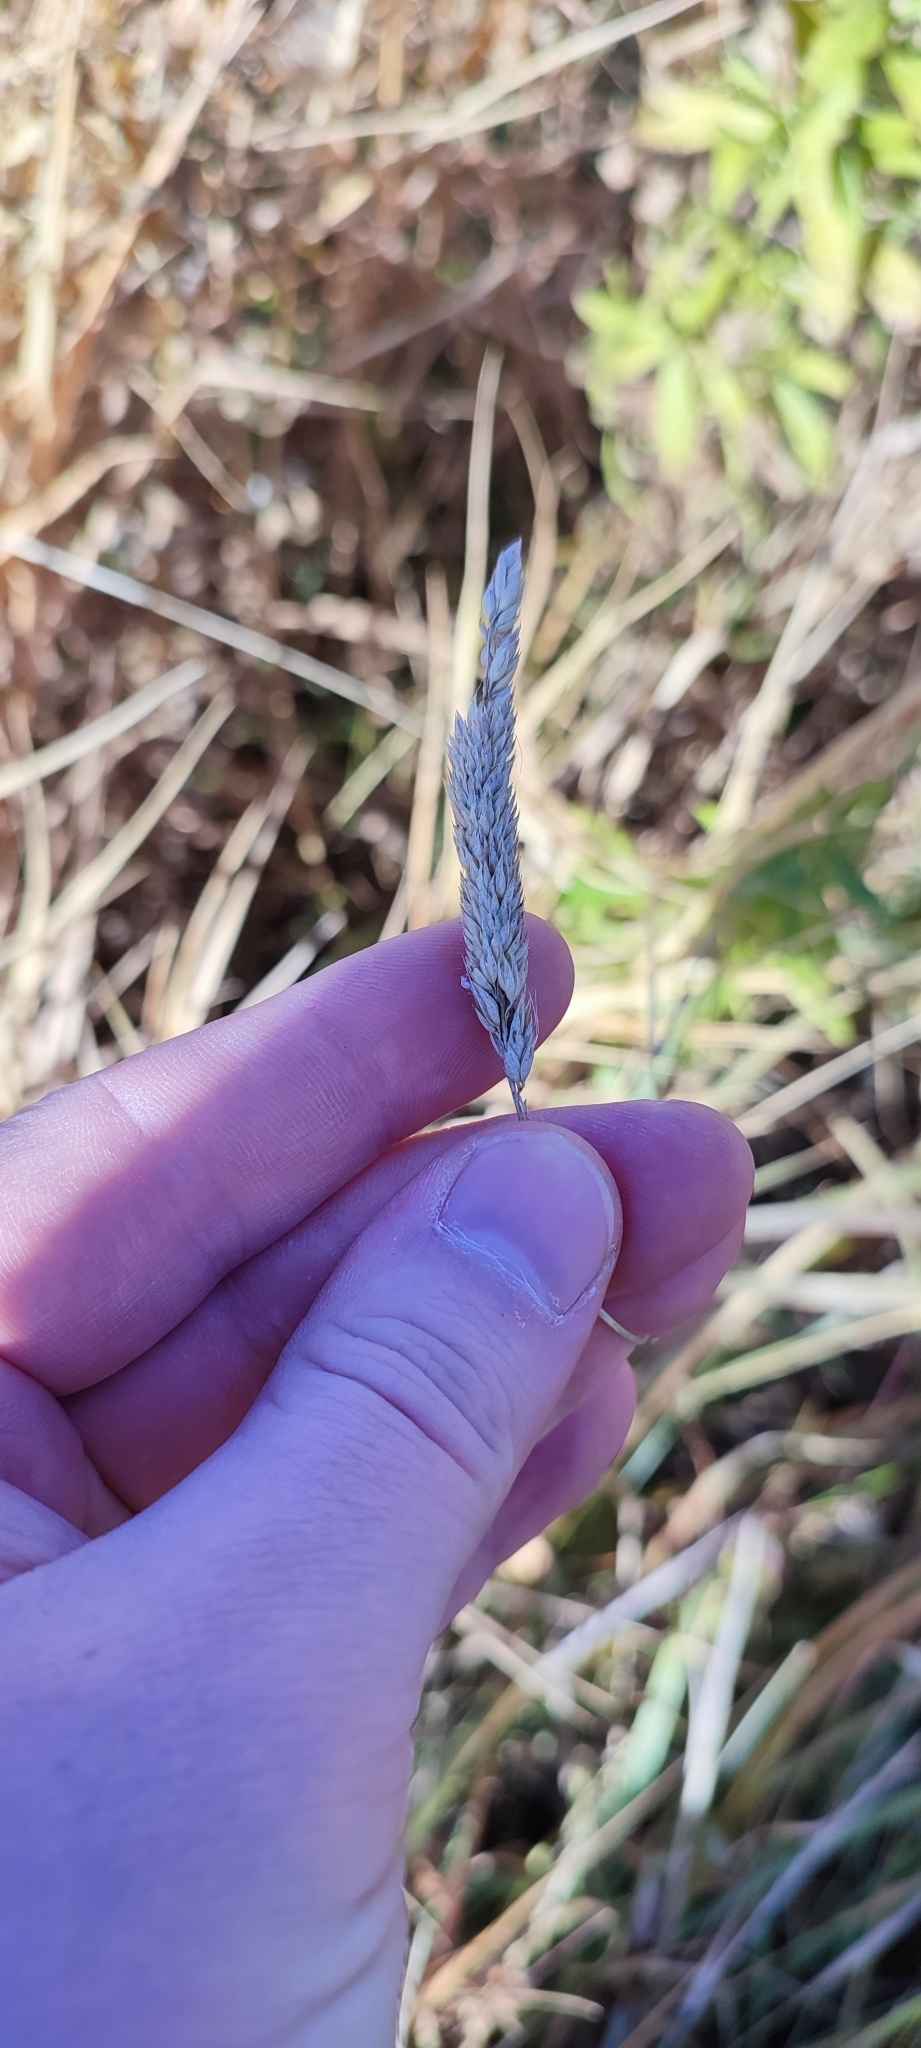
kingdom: Plantae
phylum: Tracheophyta
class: Liliopsida
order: Poales
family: Poaceae
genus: Phalaris
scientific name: Phalaris arundinacea
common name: Reed canary-grass
